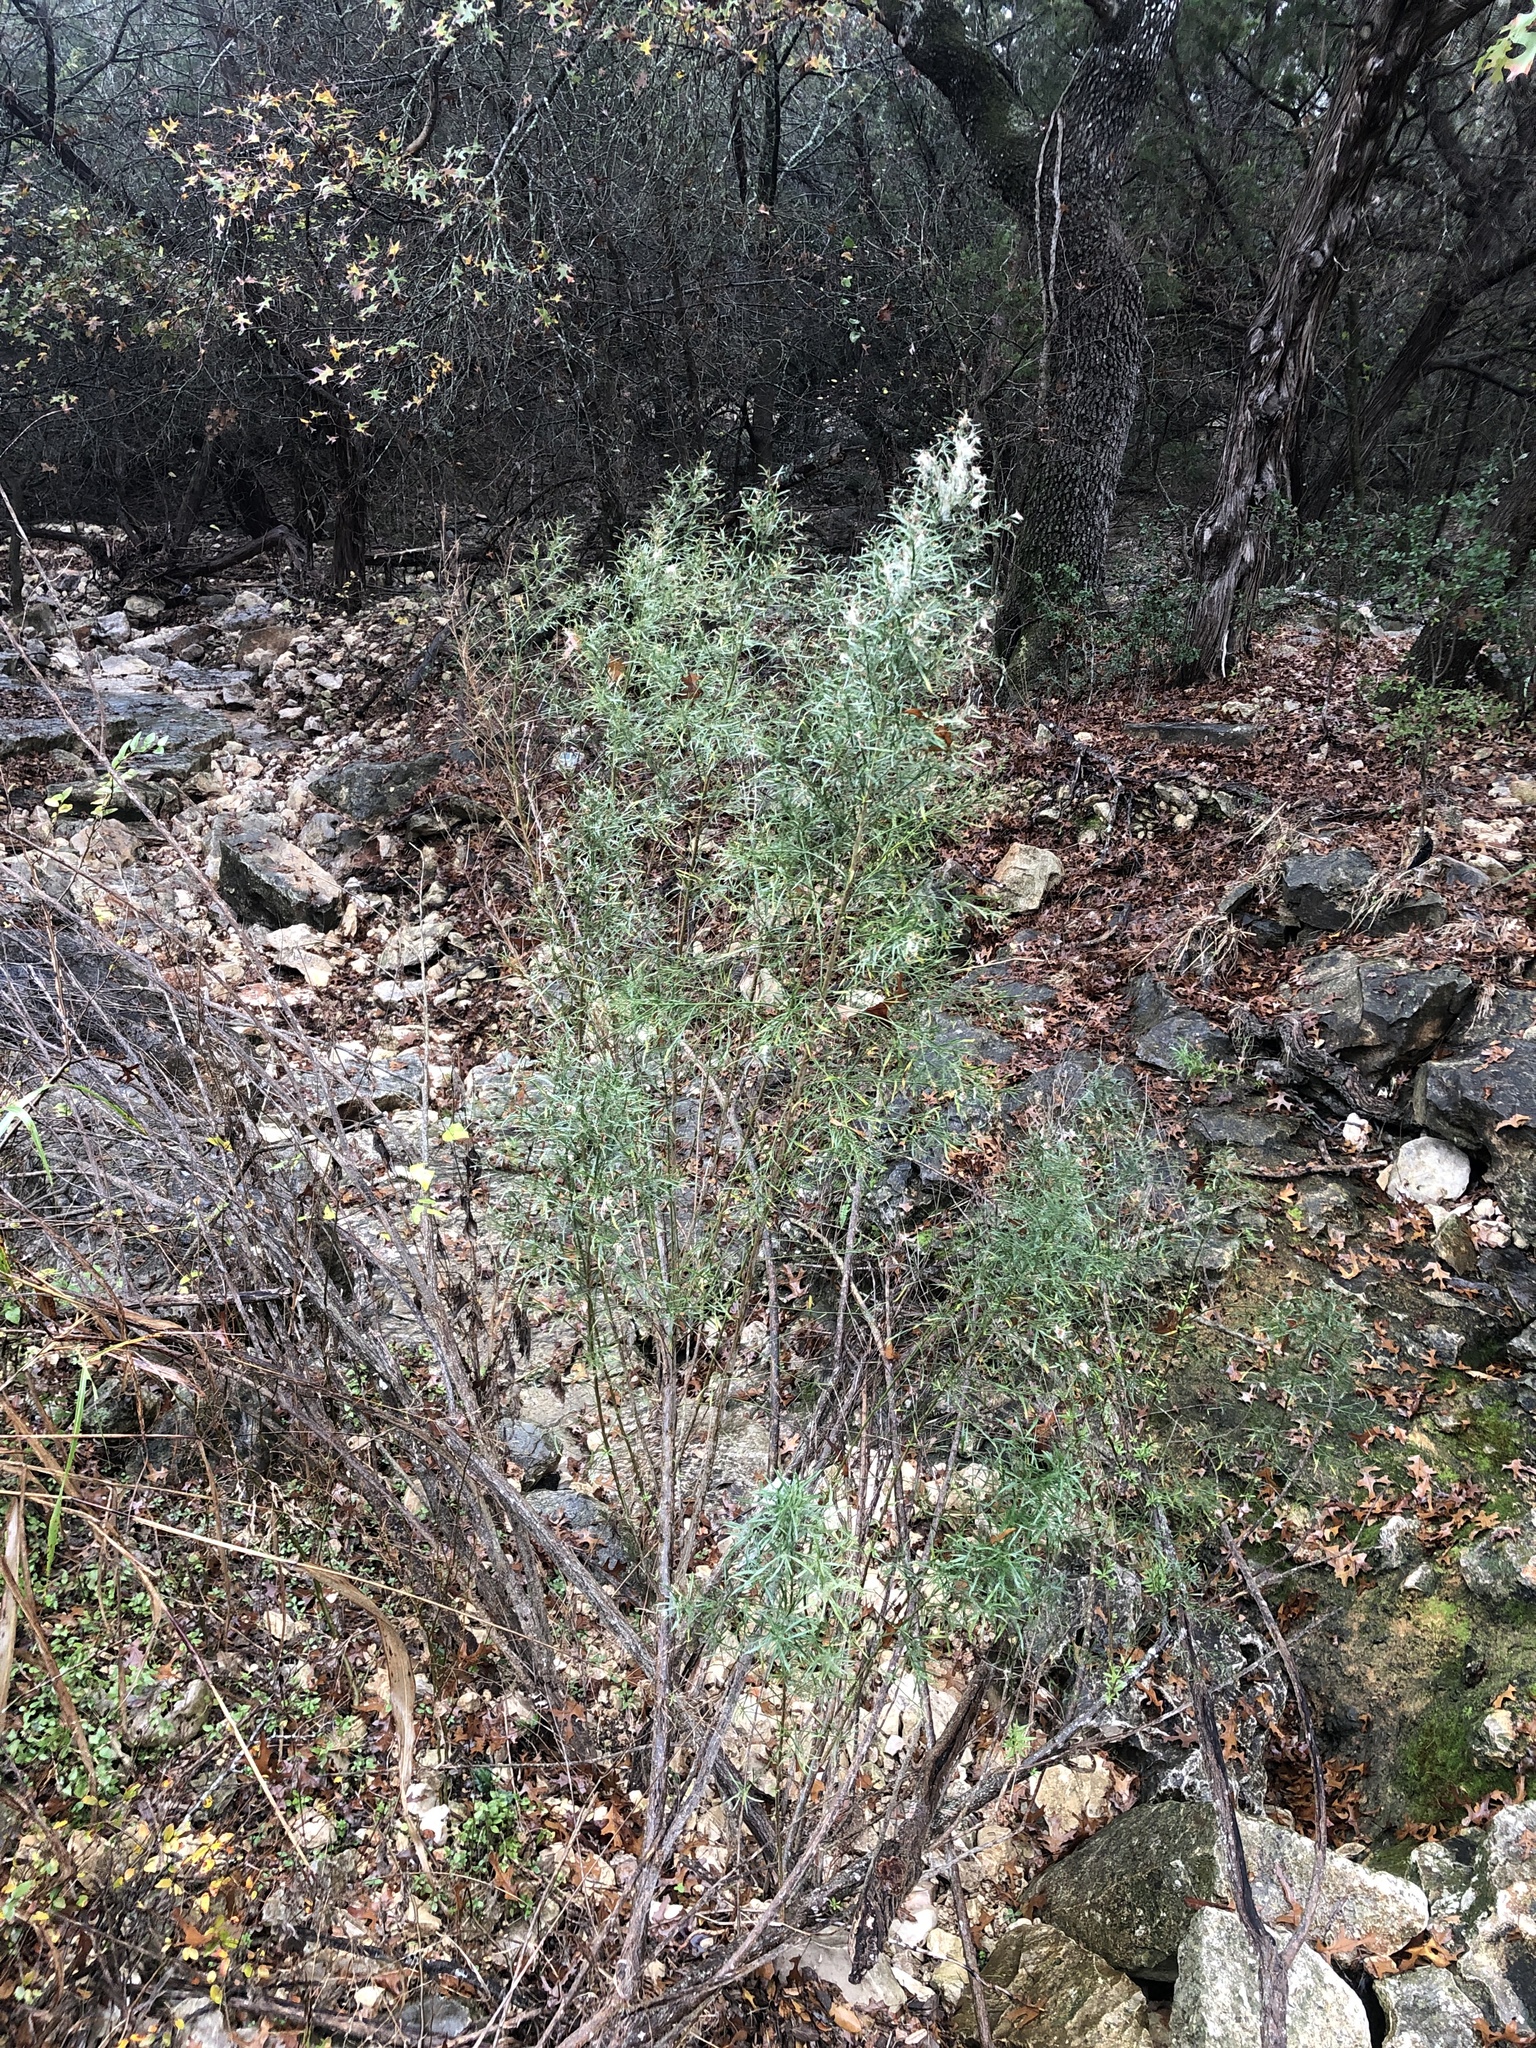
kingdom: Plantae
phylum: Tracheophyta
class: Magnoliopsida
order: Asterales
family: Asteraceae
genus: Baccharis
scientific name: Baccharis neglecta
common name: Roosevelt-weed
